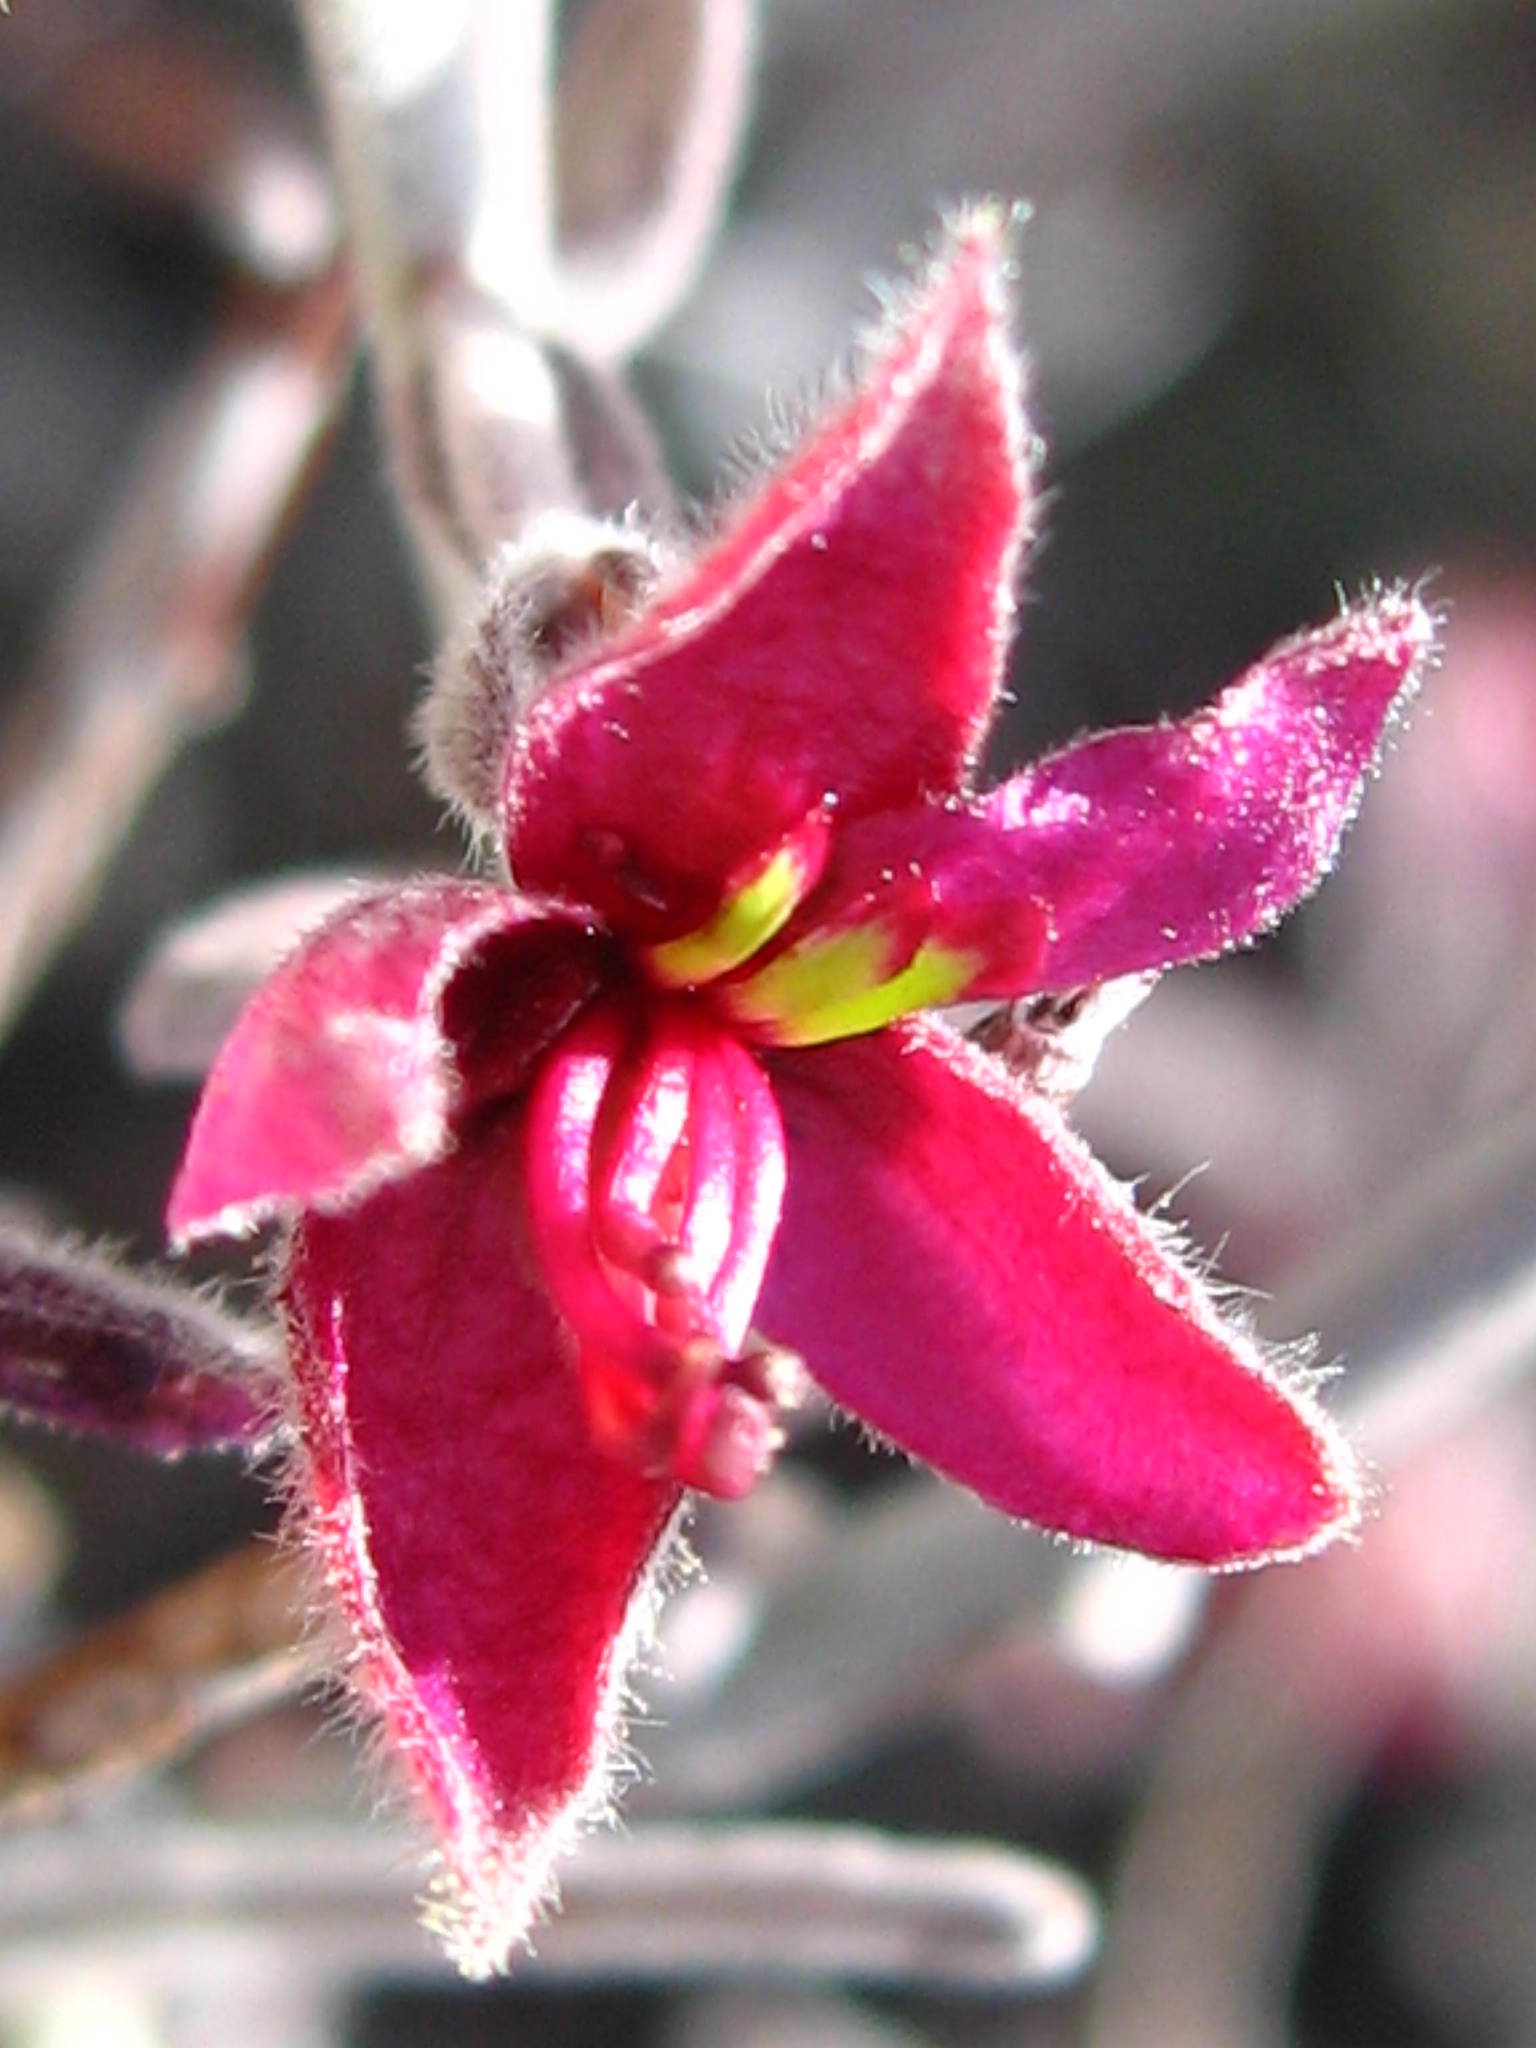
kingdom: Plantae
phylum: Tracheophyta
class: Magnoliopsida
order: Zygophyllales
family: Krameriaceae
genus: Krameria
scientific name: Krameria bicolor
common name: White ratany
